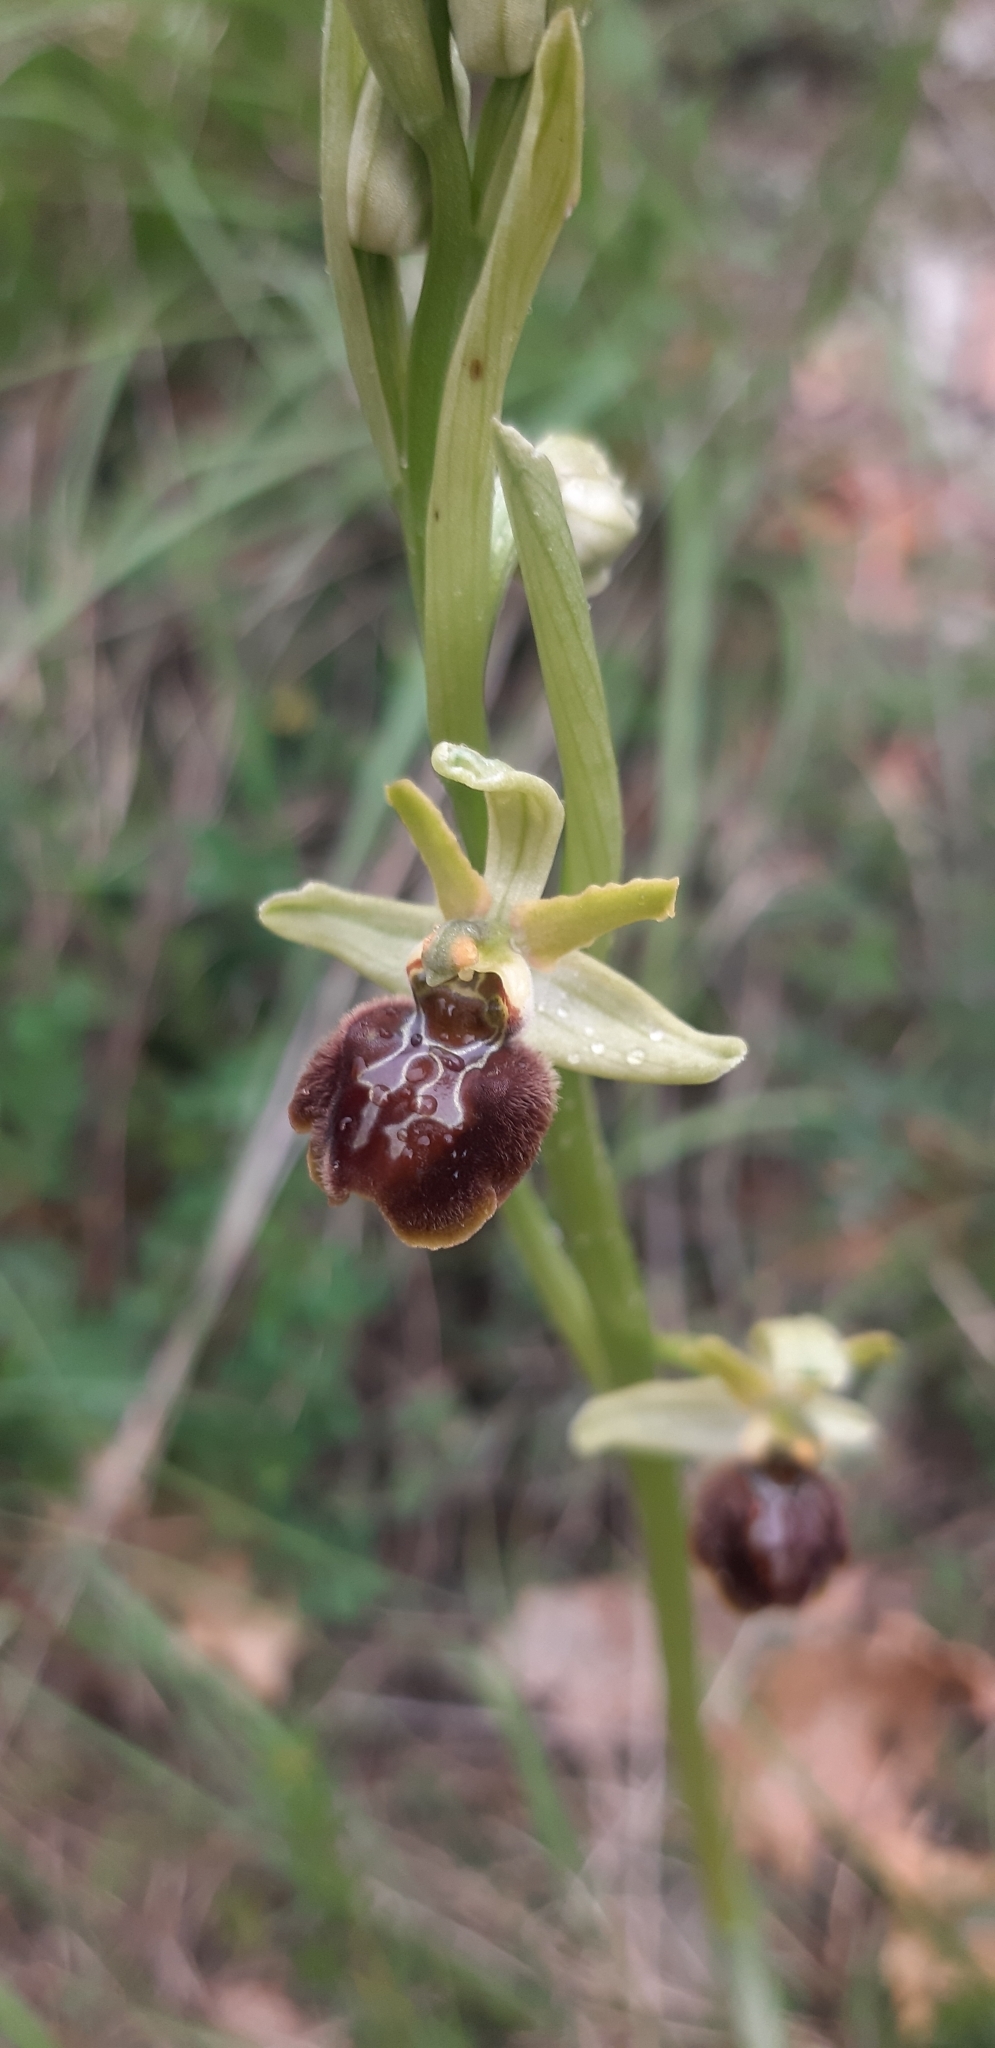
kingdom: Plantae
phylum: Tracheophyta
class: Liliopsida
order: Asparagales
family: Orchidaceae
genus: Ophrys
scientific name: Ophrys sphegodes
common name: Early spider-orchid
